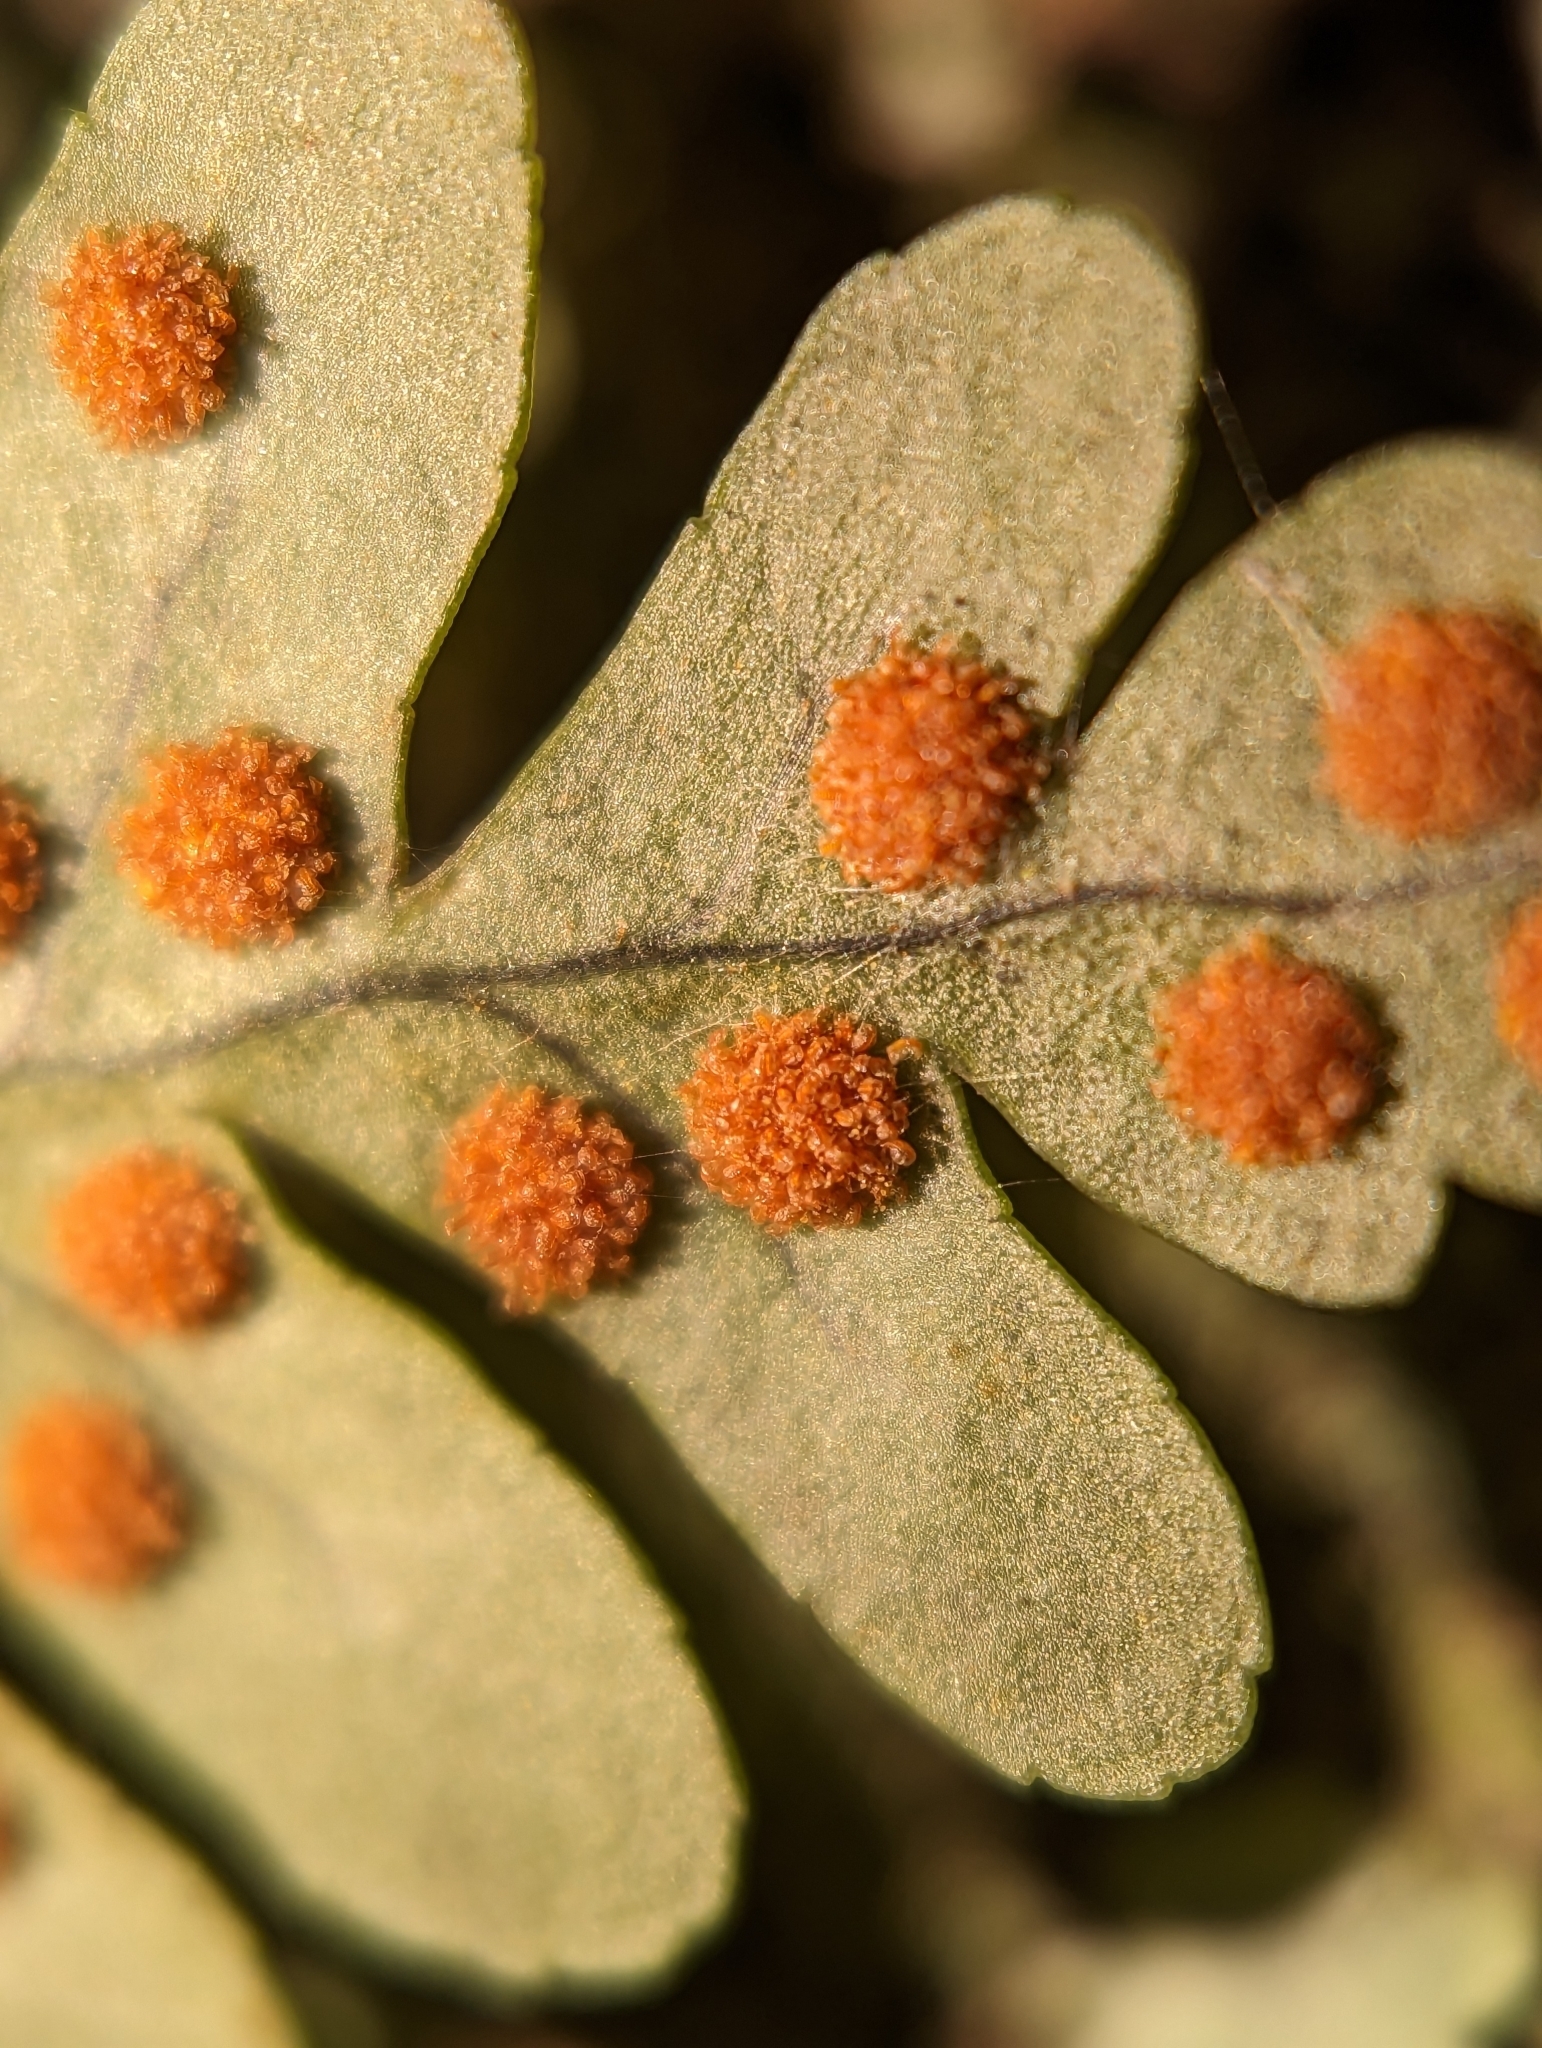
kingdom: Plantae
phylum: Tracheophyta
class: Polypodiopsida
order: Polypodiales
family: Polypodiaceae
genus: Polypodium
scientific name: Polypodium virginianum
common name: American wall fern
